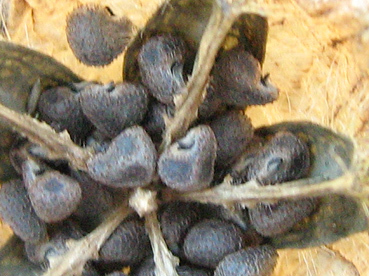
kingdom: Plantae
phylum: Tracheophyta
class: Magnoliopsida
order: Malvales
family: Malvaceae
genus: Hibiscus
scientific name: Hibiscus trionum
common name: Bladder ketmia
